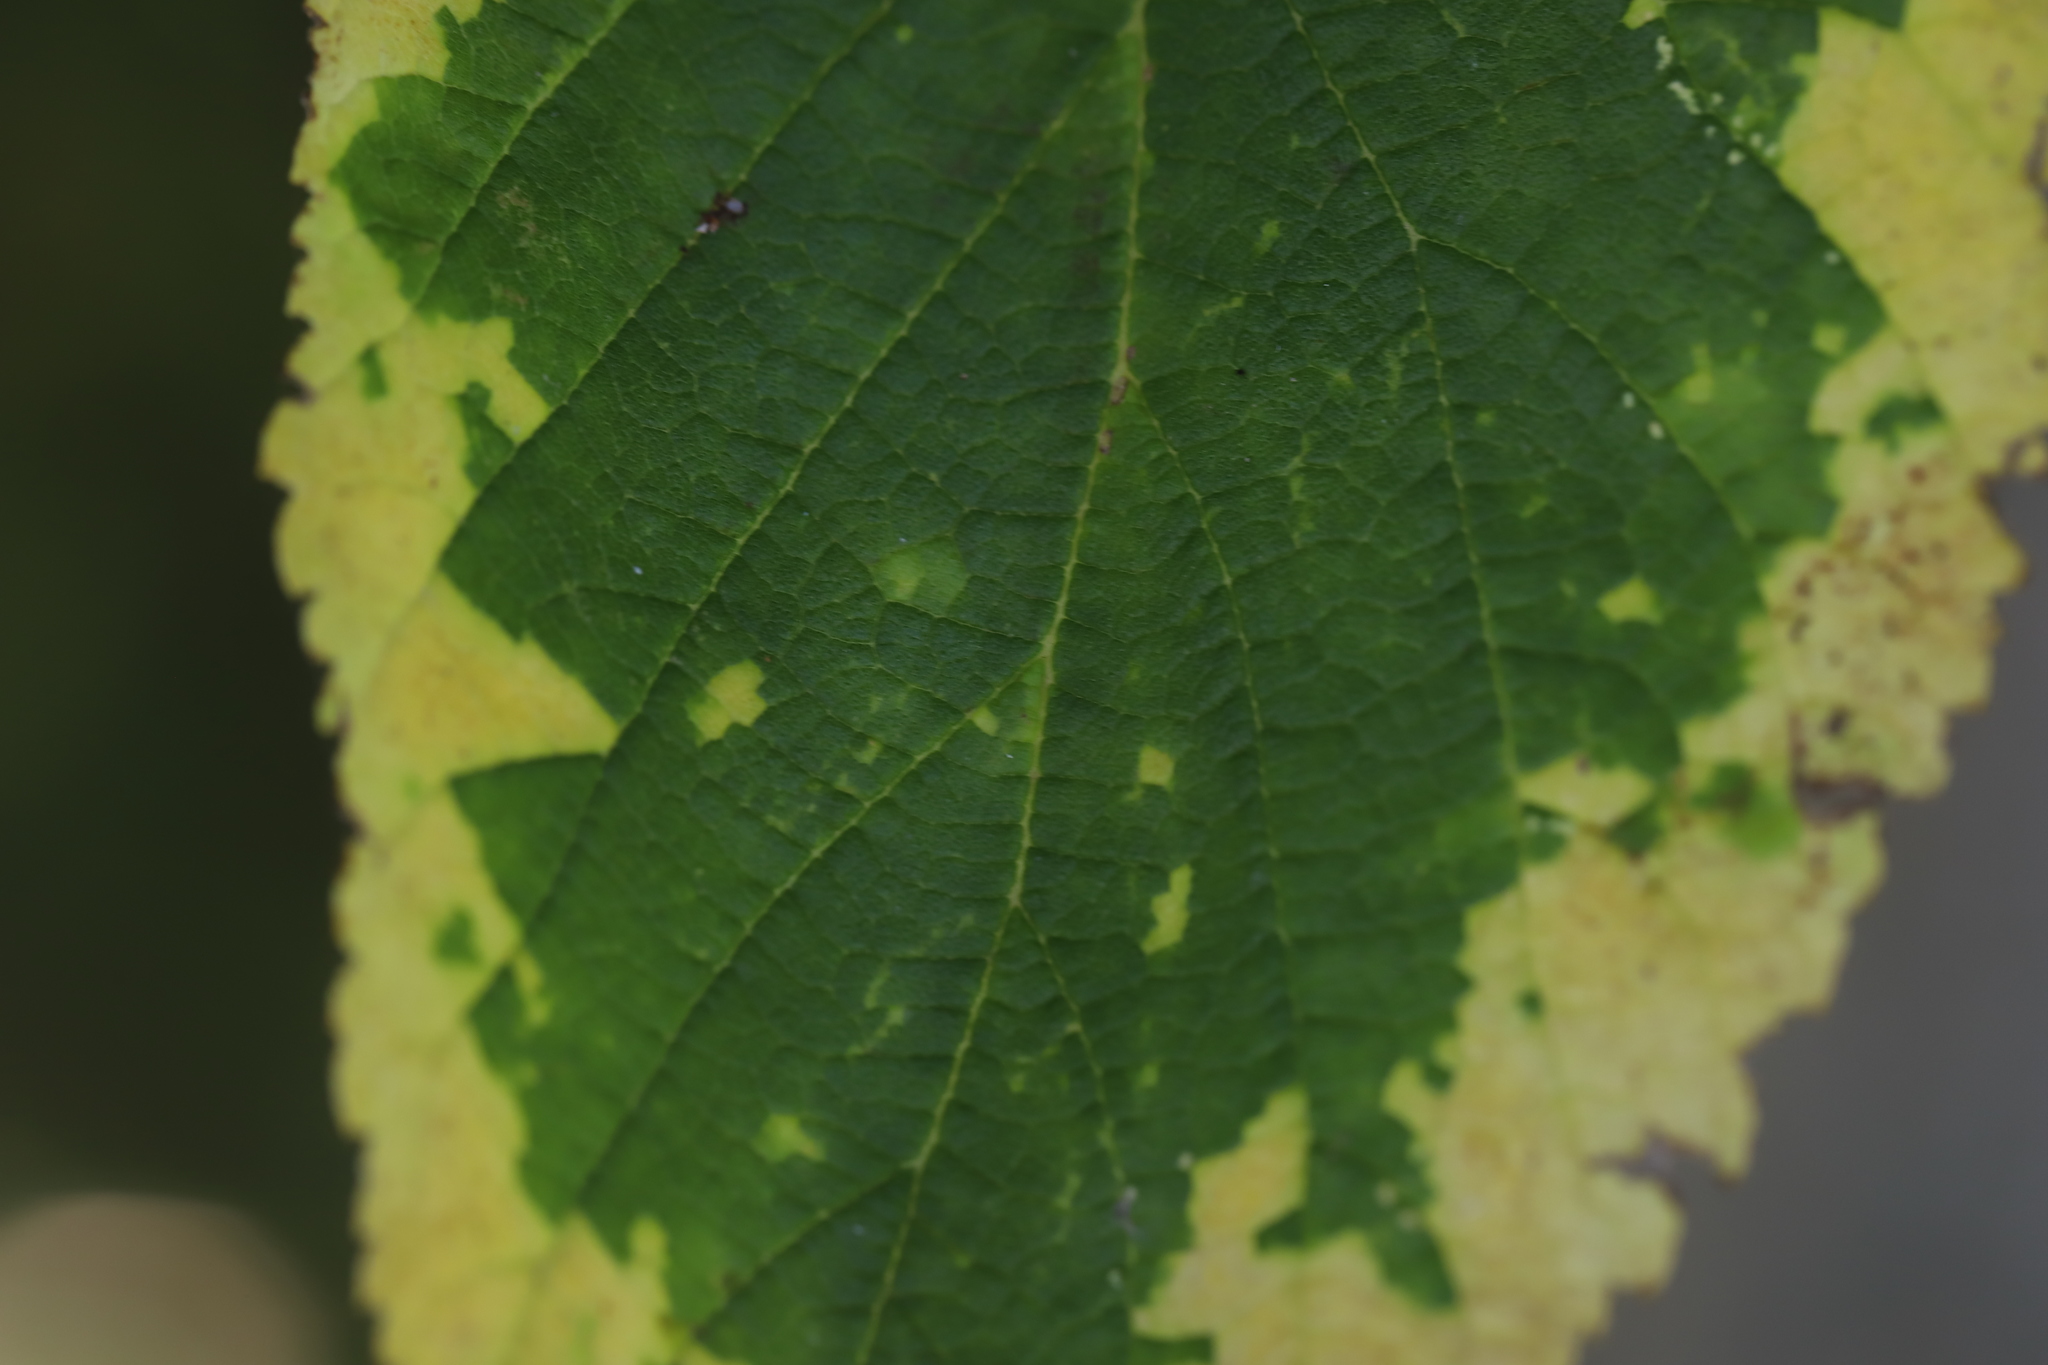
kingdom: Viruses
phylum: Kitrinoviricota
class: Alsuviricetes
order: Martellivirales
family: Closteroviridae
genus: Ampelovirus
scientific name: Ampelovirus
